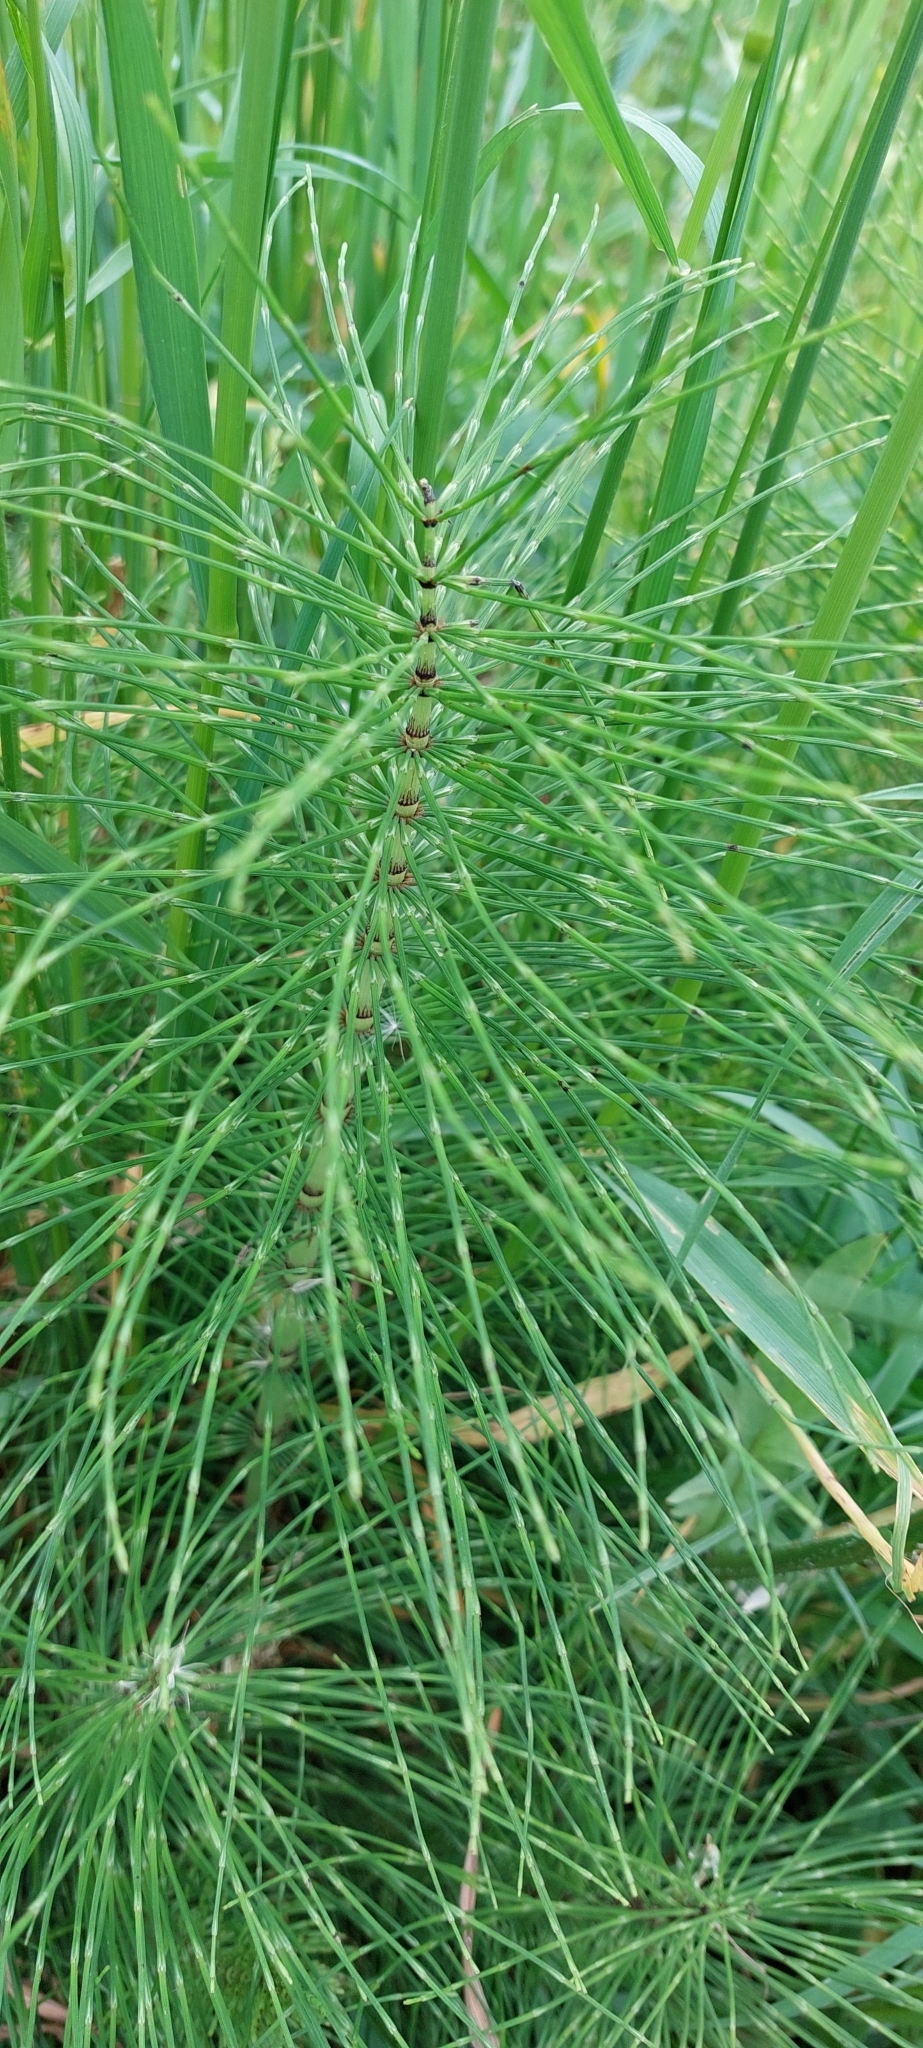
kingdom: Plantae
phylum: Tracheophyta
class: Polypodiopsida
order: Equisetales
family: Equisetaceae
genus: Equisetum
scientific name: Equisetum telmateia
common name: Great horsetail
